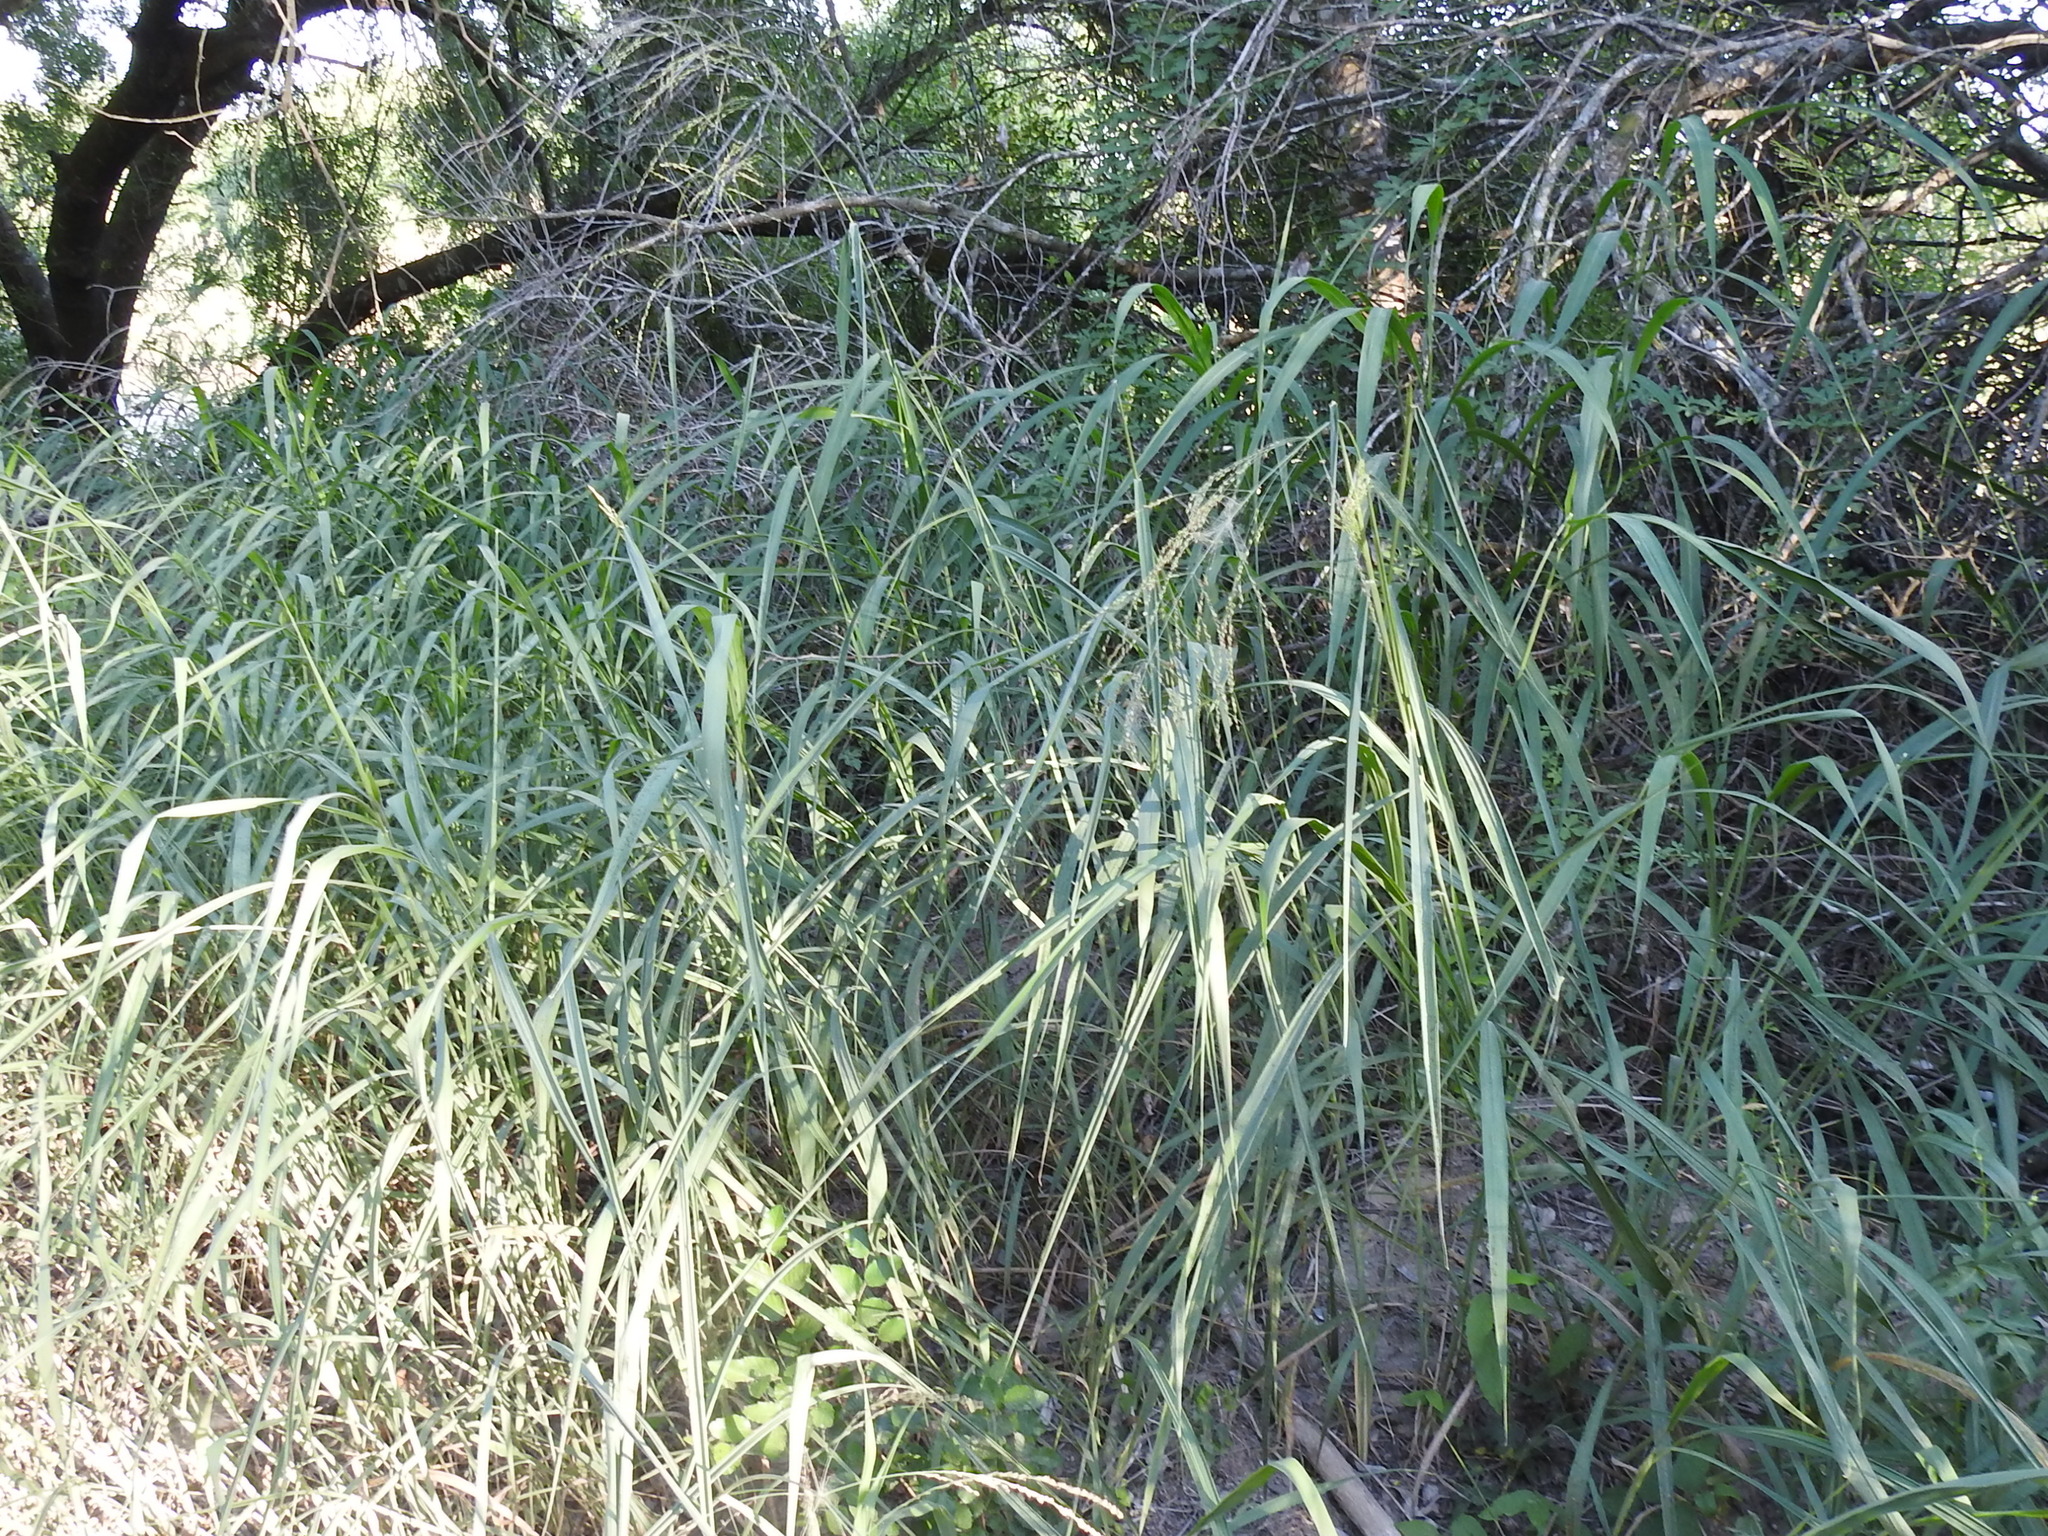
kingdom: Plantae
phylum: Tracheophyta
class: Liliopsida
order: Poales
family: Poaceae
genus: Megathyrsus
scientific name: Megathyrsus maximus
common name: Guineagrass
